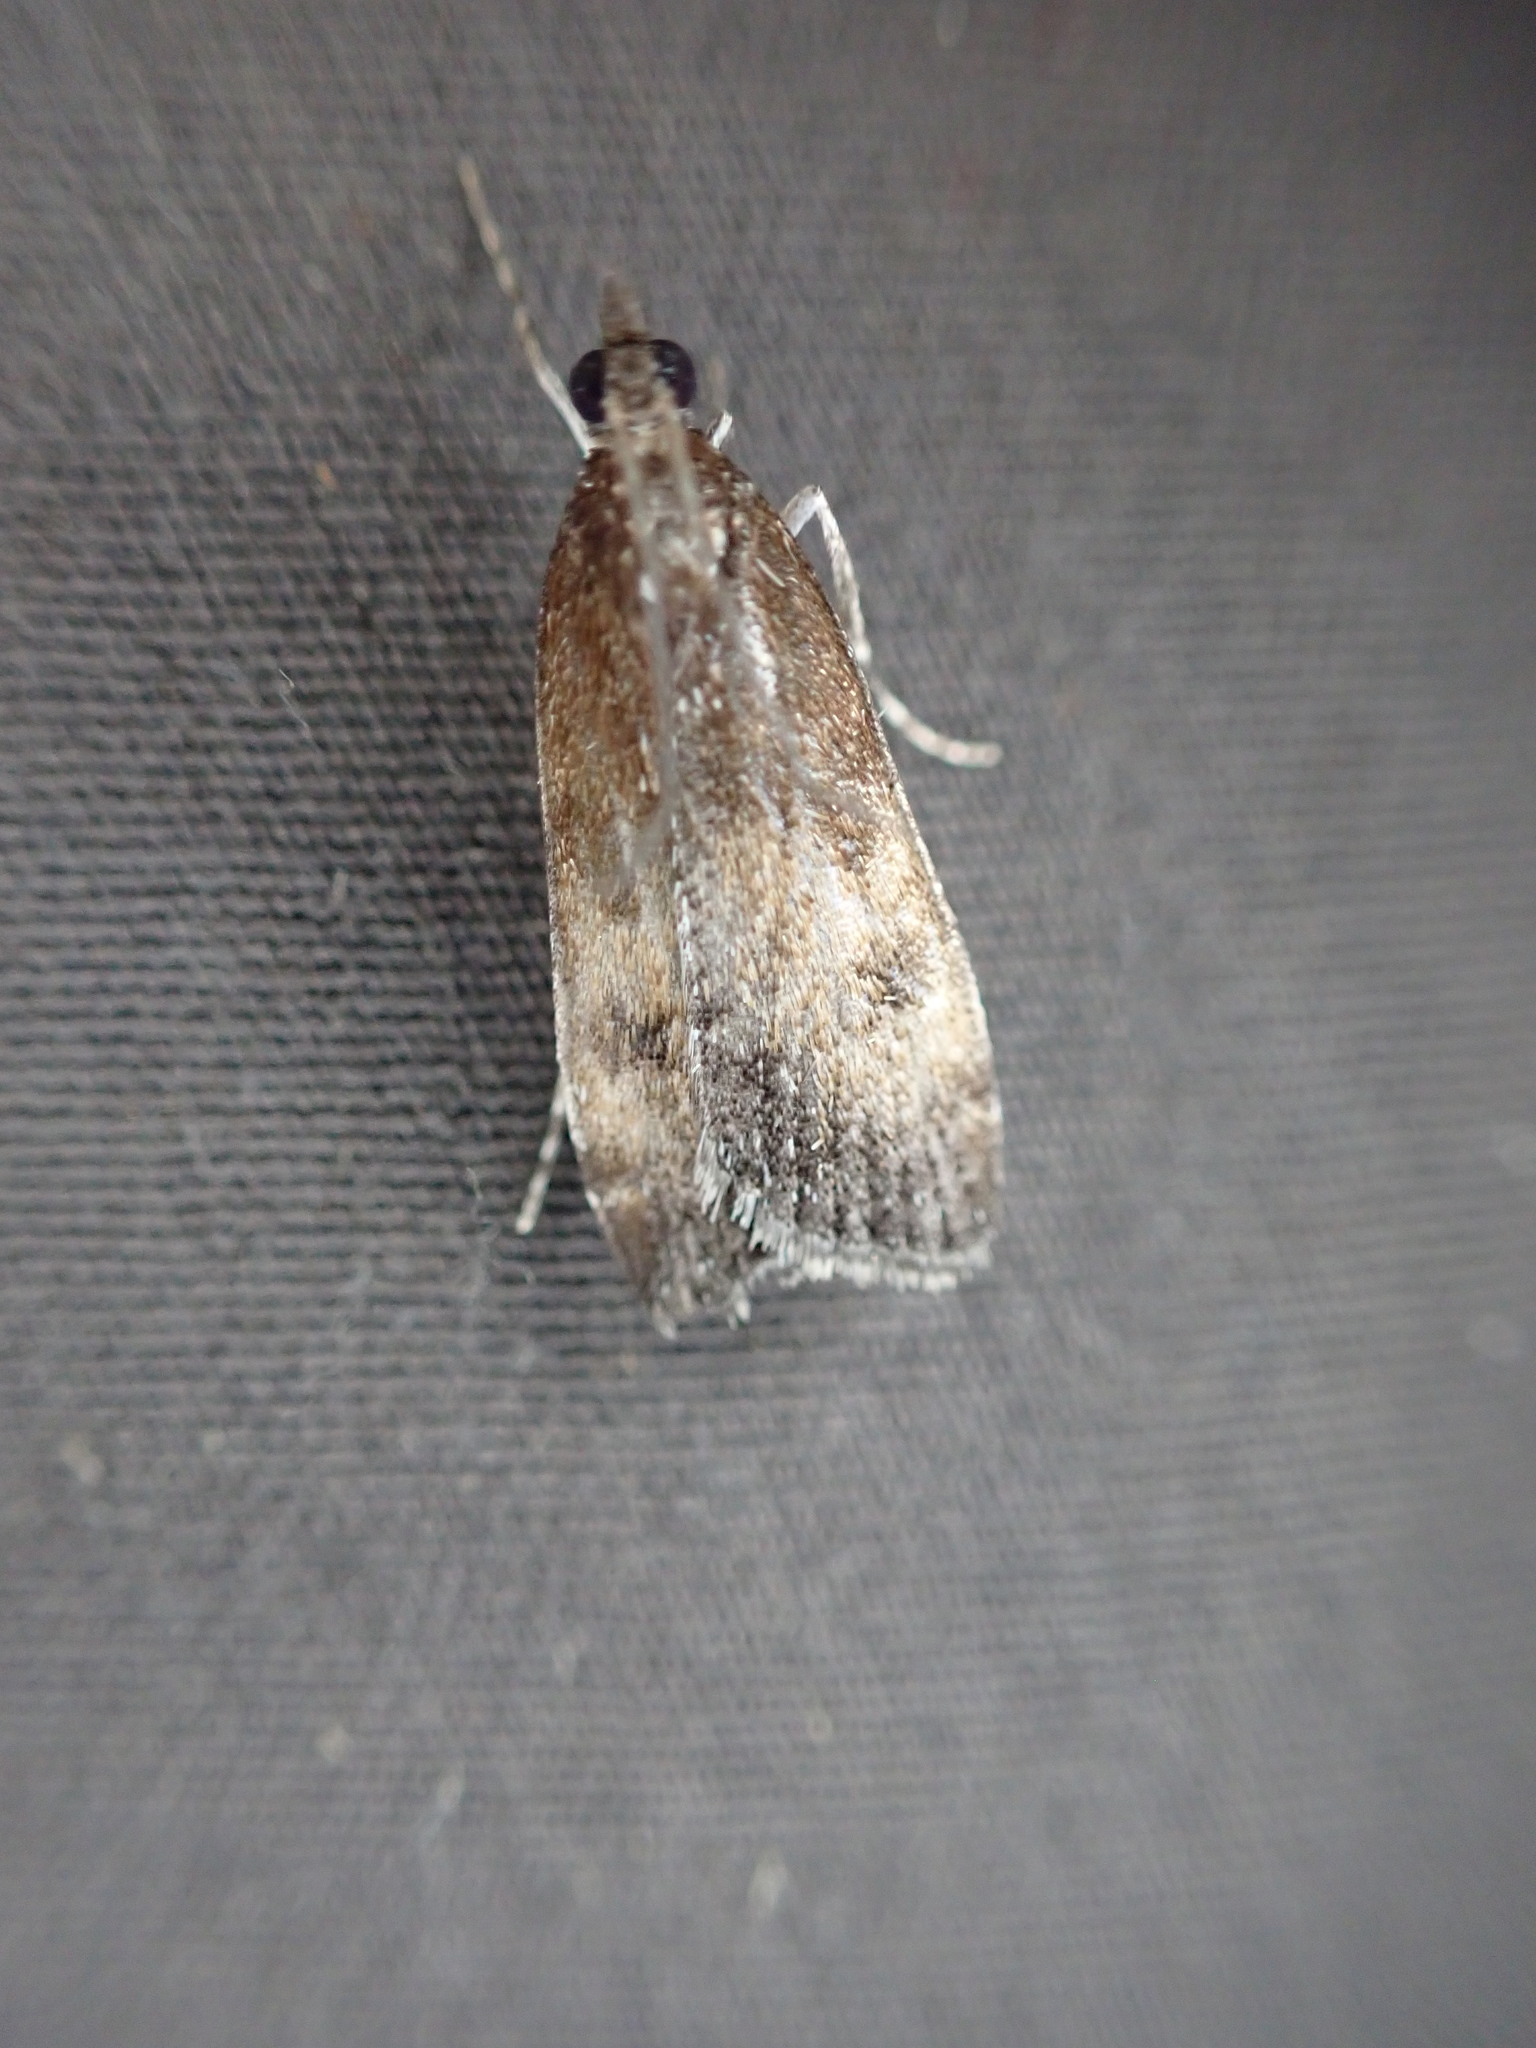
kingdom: Animalia
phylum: Arthropoda
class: Insecta
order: Lepidoptera
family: Crambidae
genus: Eudonia
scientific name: Eudonia asterisca
